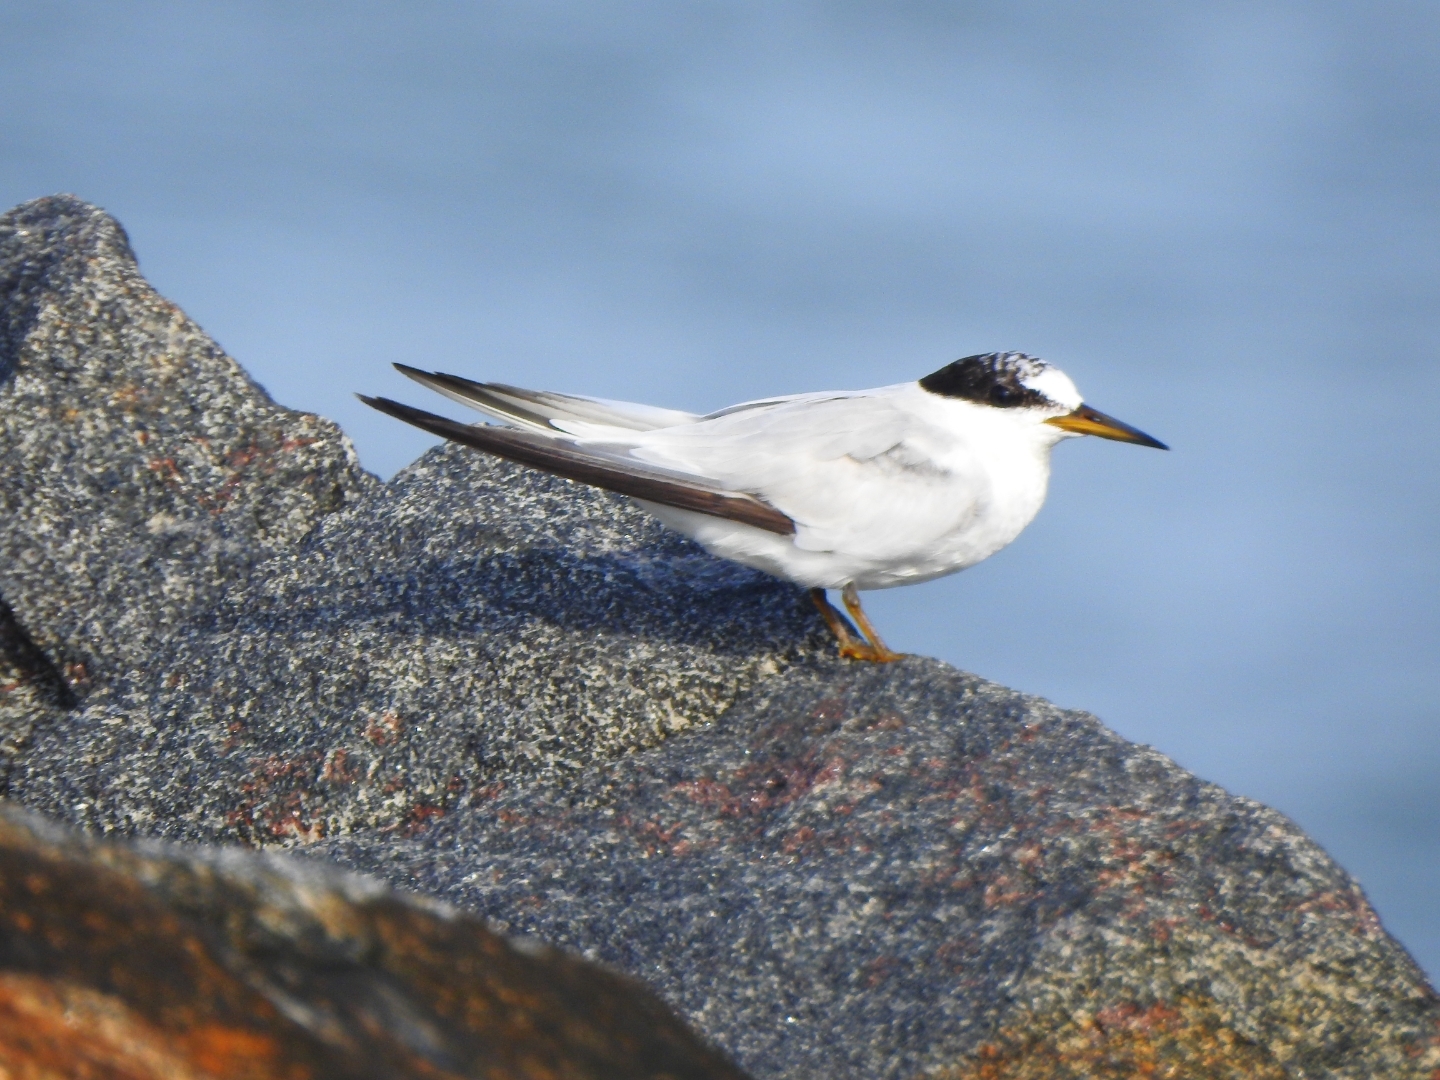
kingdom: Animalia
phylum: Chordata
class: Aves
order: Charadriiformes
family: Laridae
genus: Sternula
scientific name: Sternula albifrons
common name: Little tern
